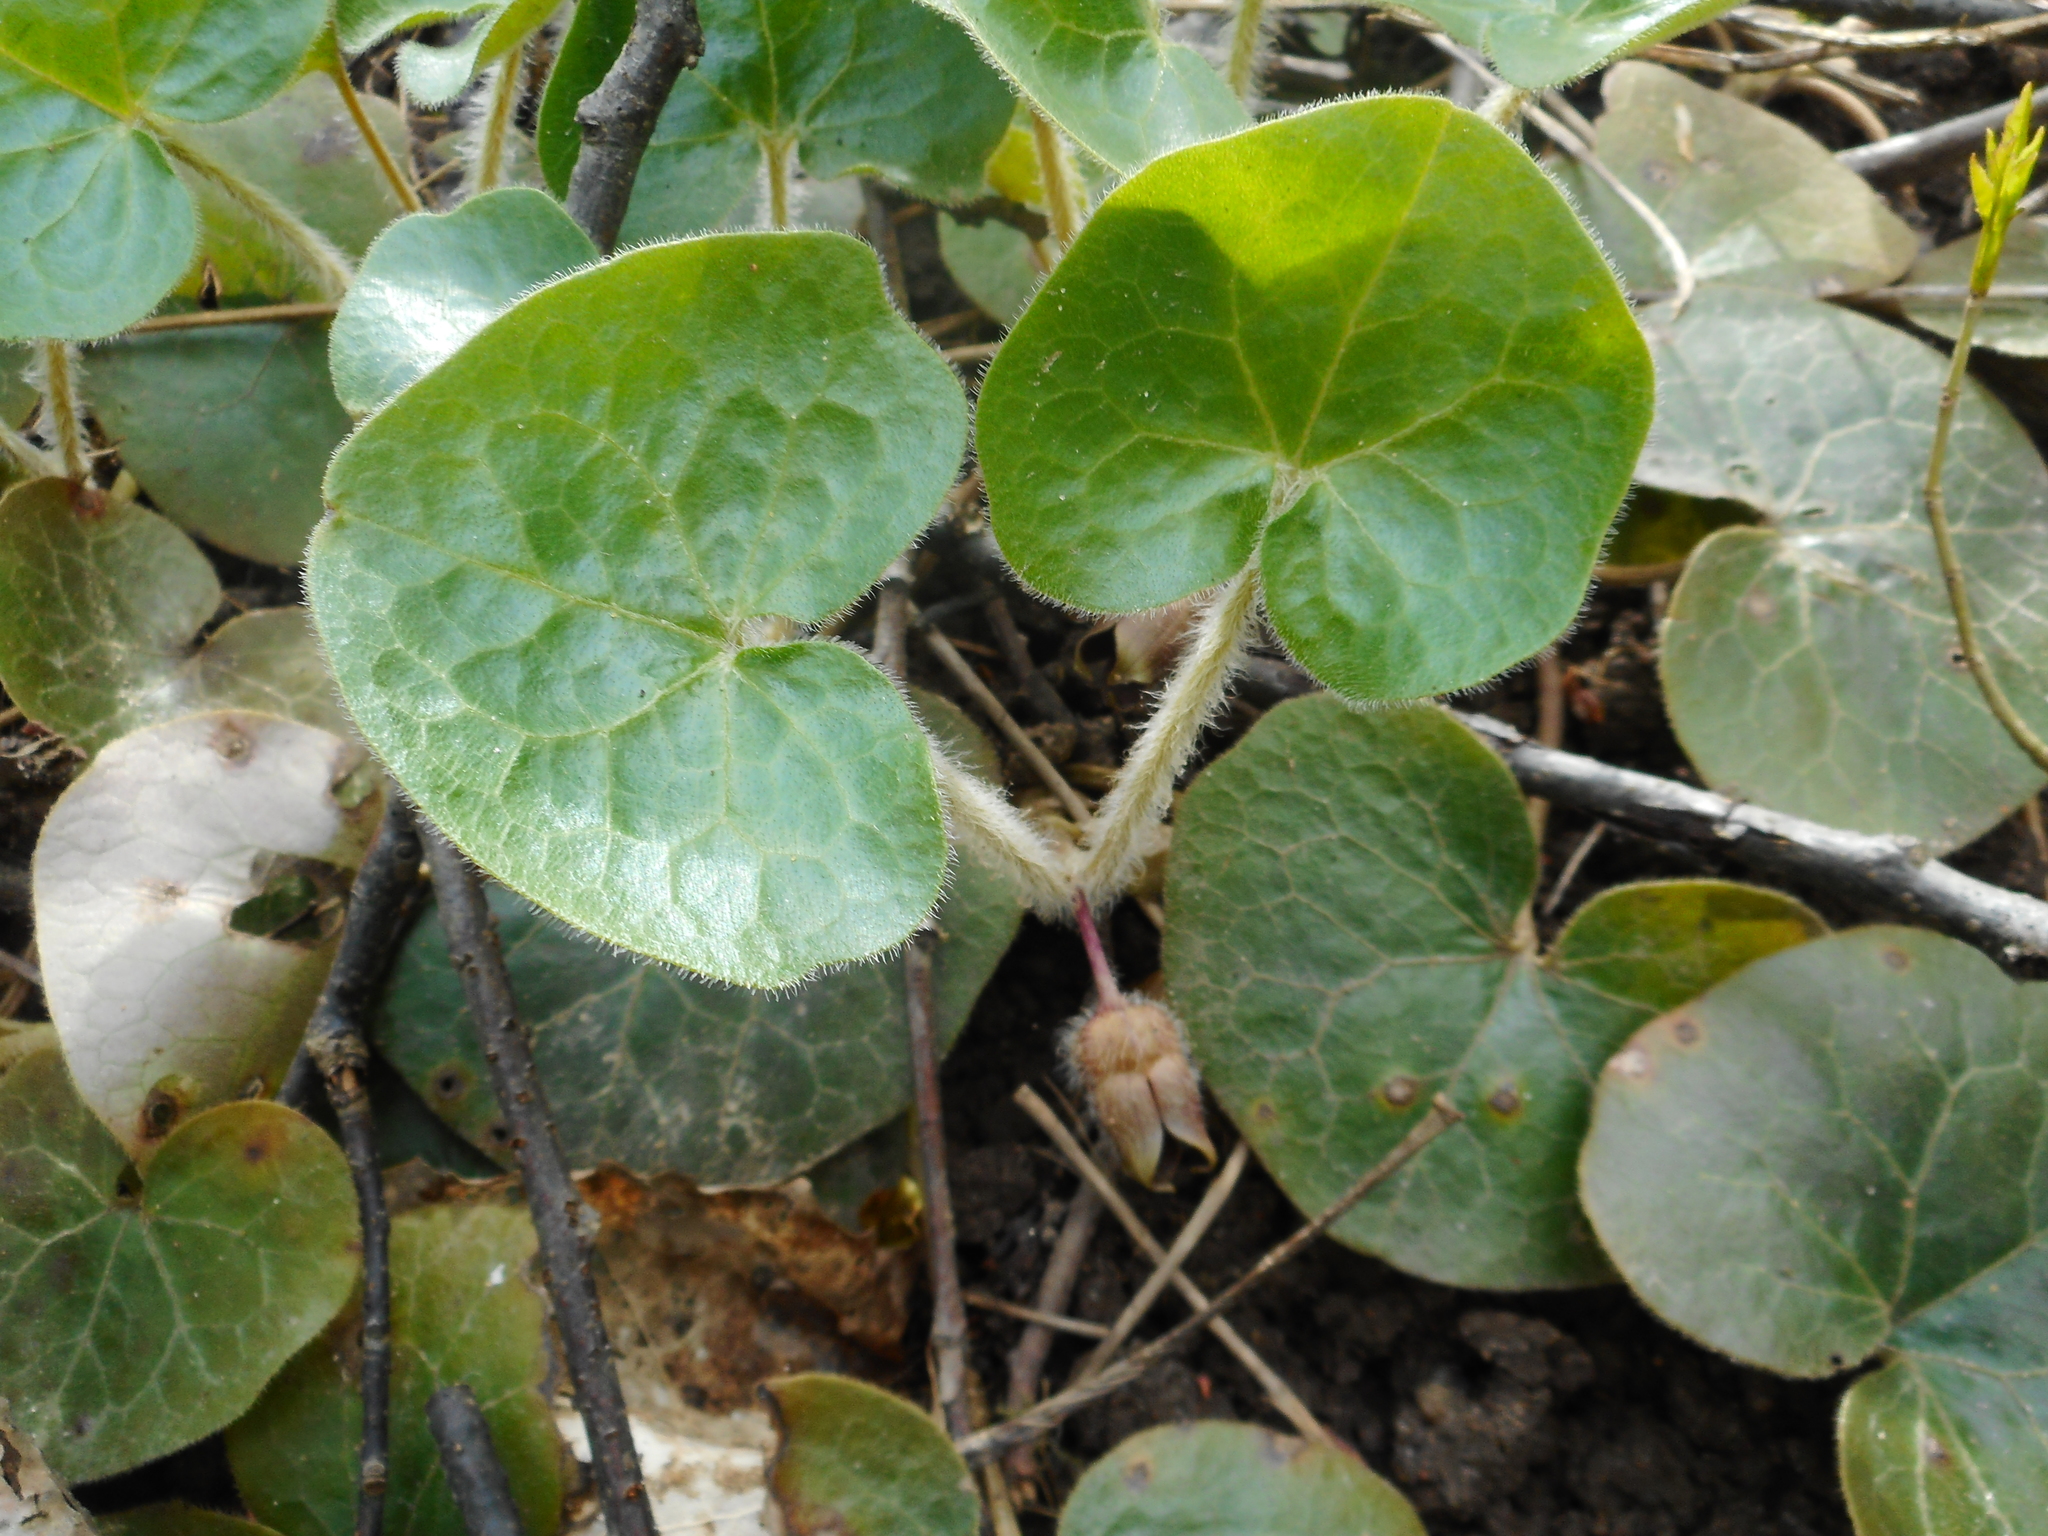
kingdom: Plantae
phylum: Tracheophyta
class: Magnoliopsida
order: Piperales
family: Aristolochiaceae
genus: Asarum
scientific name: Asarum europaeum
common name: Asarabacca
